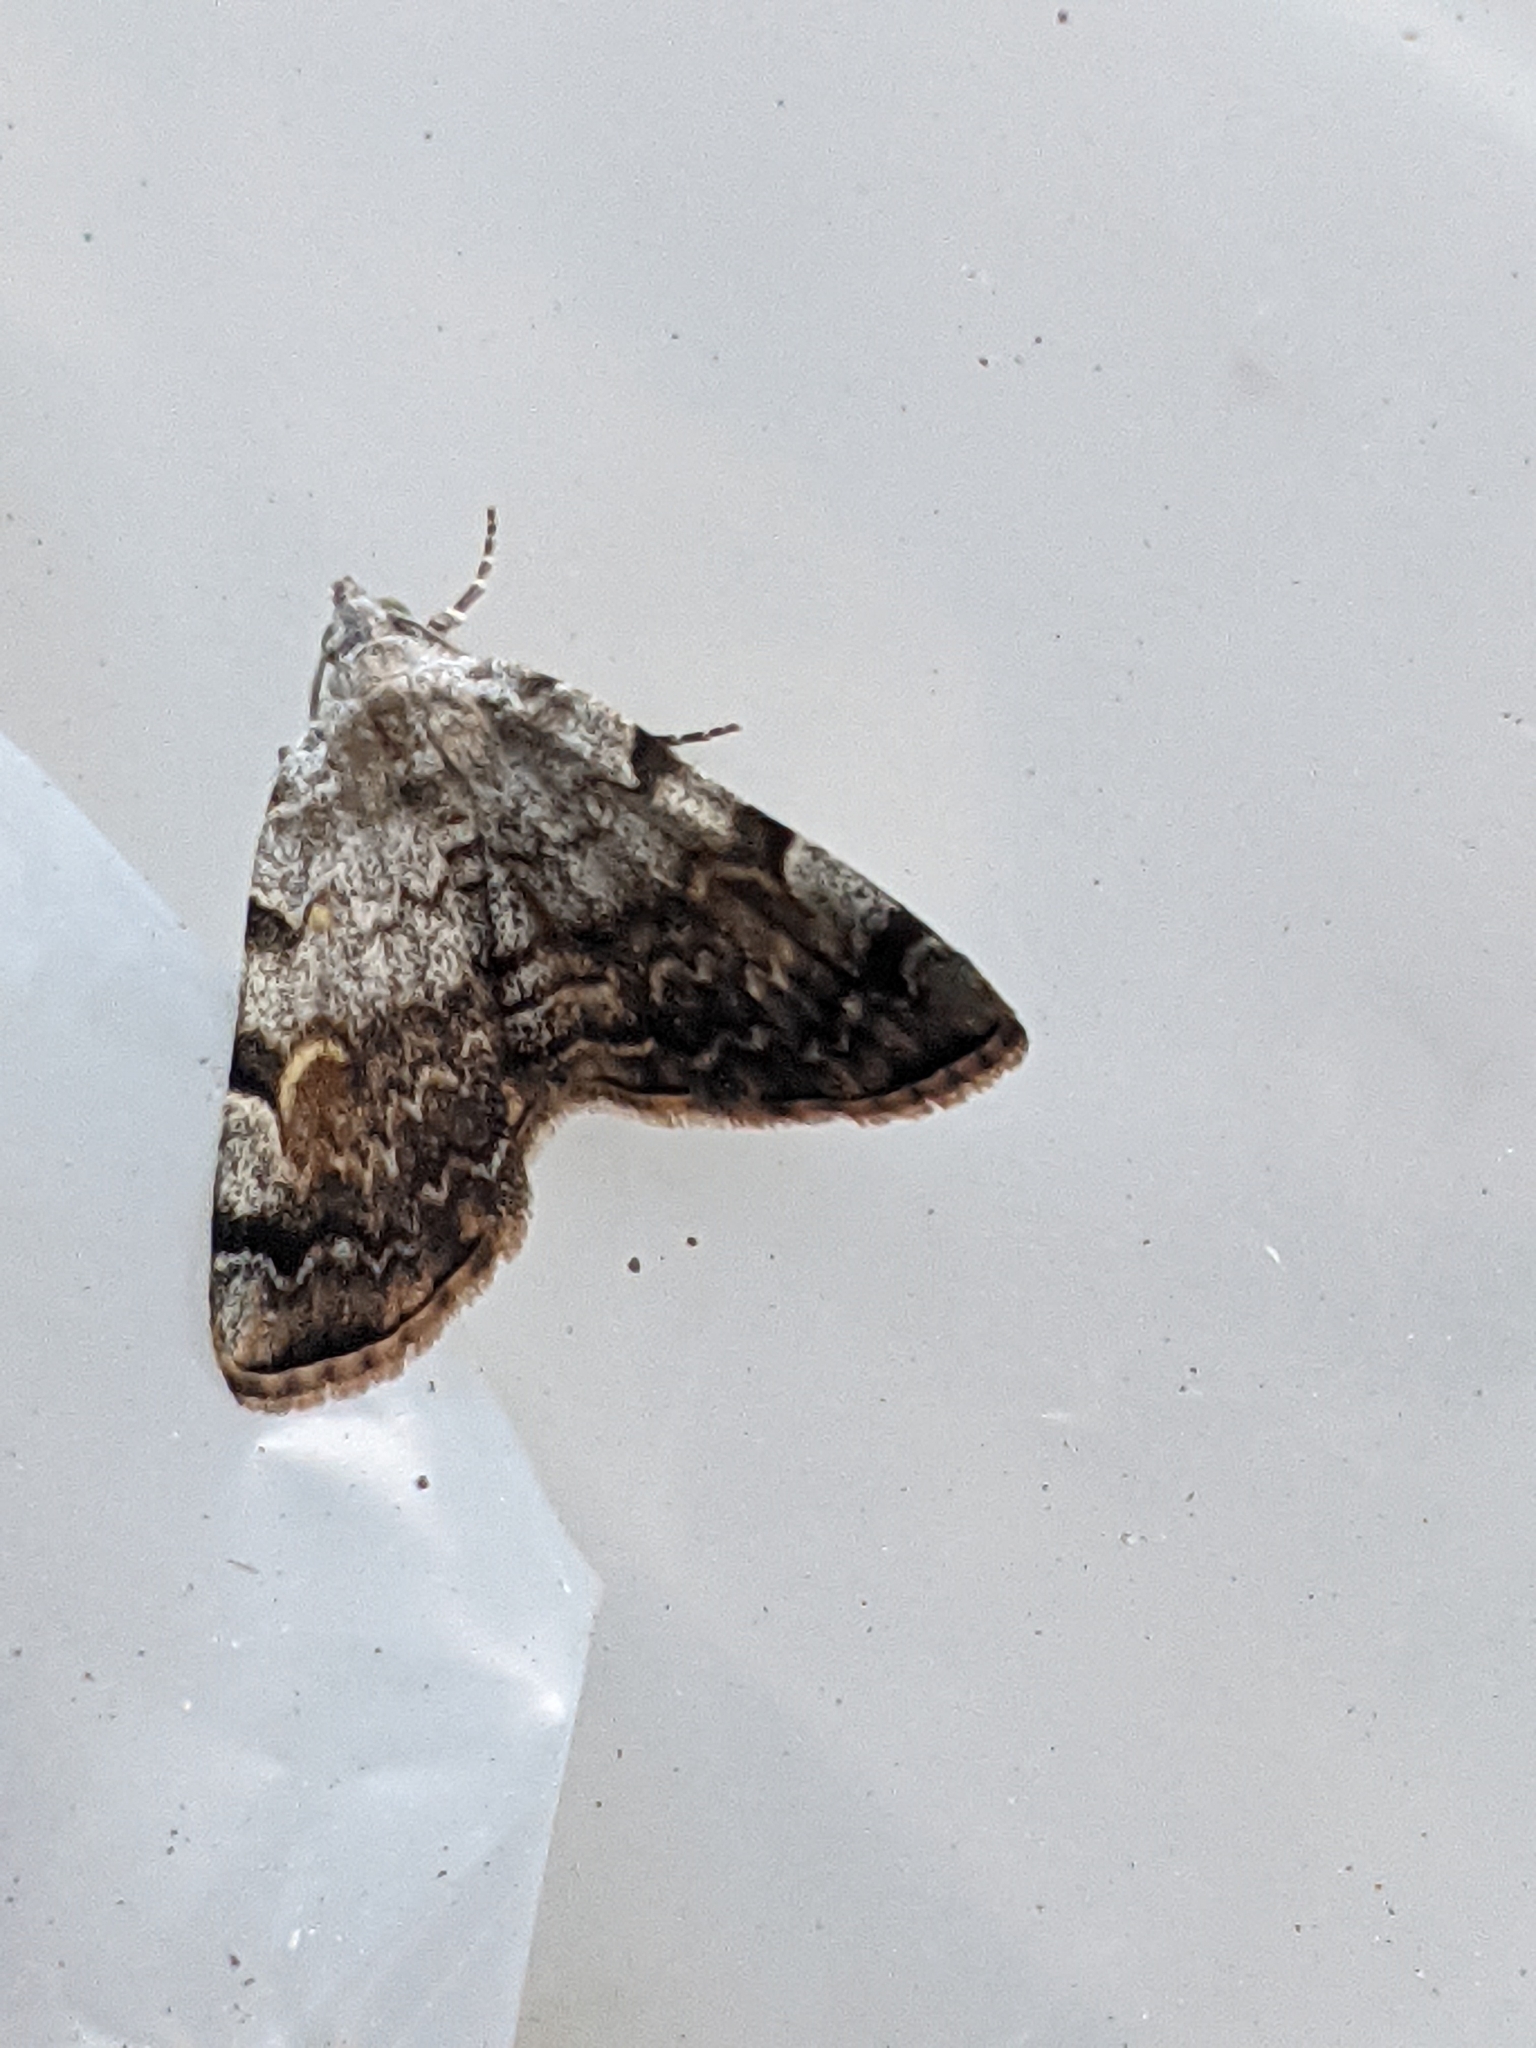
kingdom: Animalia
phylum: Arthropoda
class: Insecta
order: Lepidoptera
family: Erebidae
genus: Idia
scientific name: Idia americalis
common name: American idia moth
